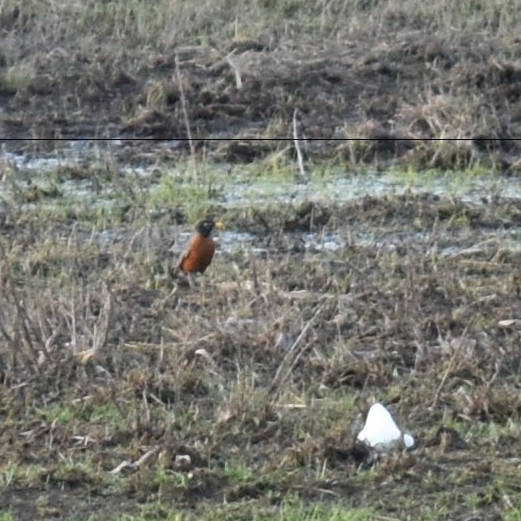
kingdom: Animalia
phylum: Chordata
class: Aves
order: Passeriformes
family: Turdidae
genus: Turdus
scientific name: Turdus migratorius
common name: American robin
